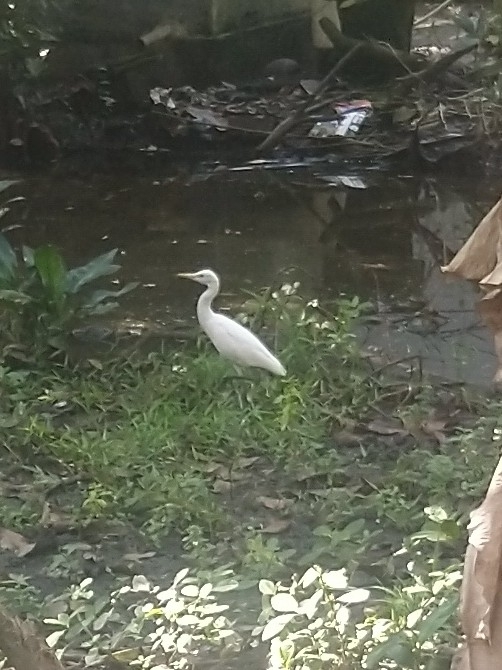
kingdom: Animalia
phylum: Chordata
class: Aves
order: Pelecaniformes
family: Ardeidae
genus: Bubulcus
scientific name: Bubulcus coromandus
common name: Eastern cattle egret
